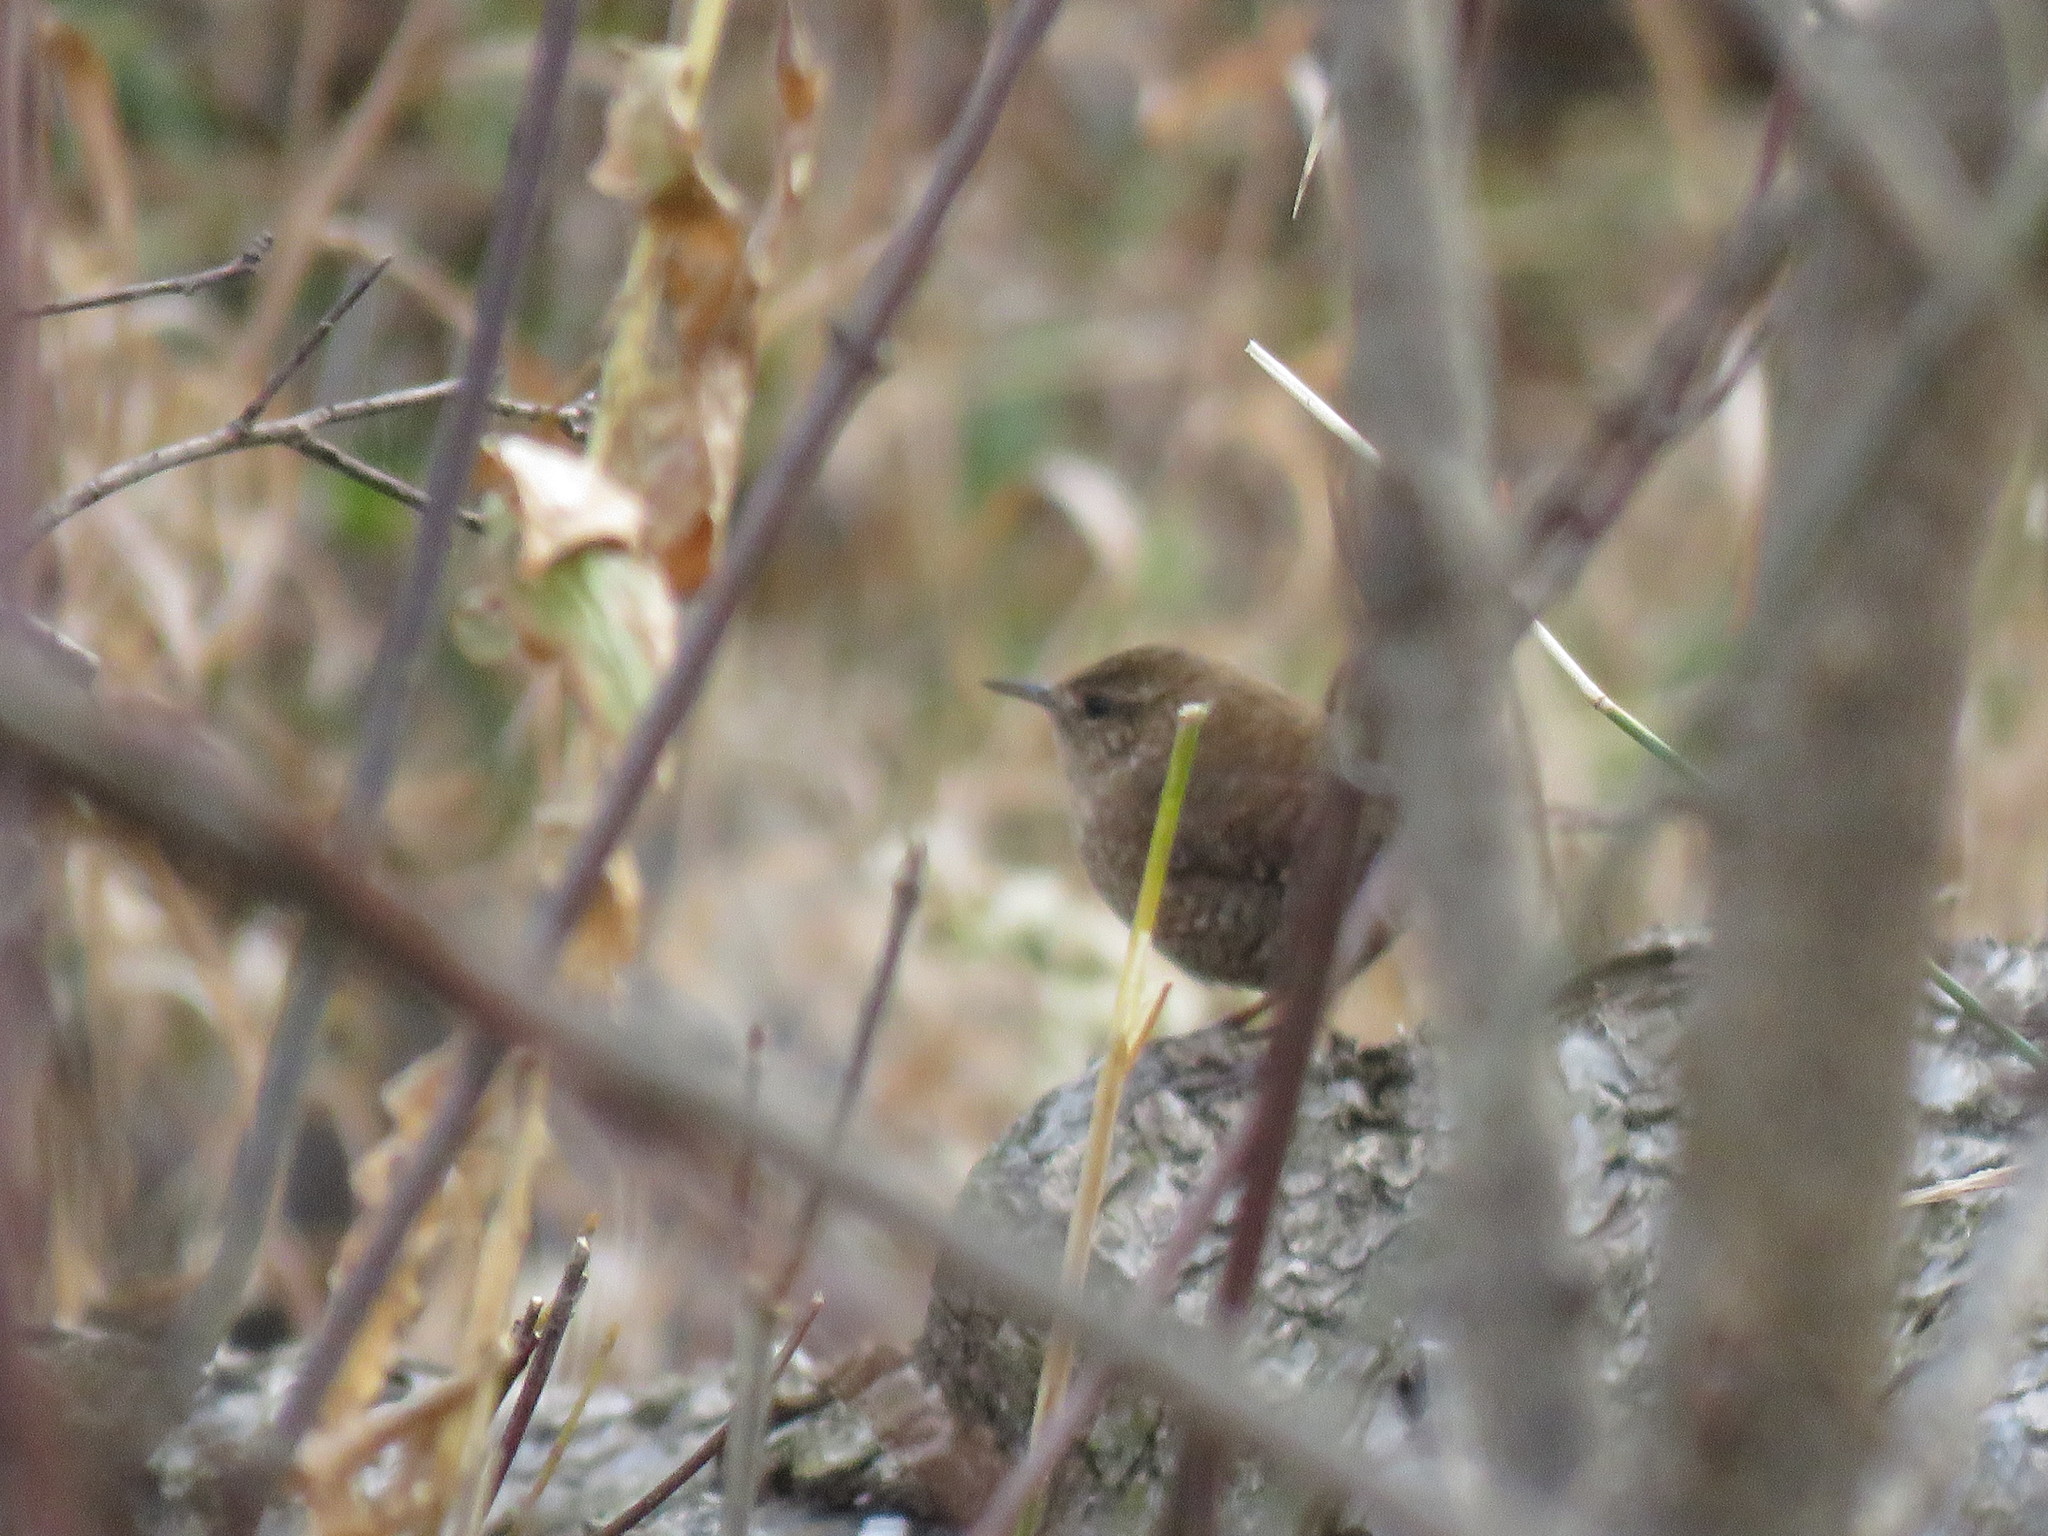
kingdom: Animalia
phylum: Chordata
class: Aves
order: Passeriformes
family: Troglodytidae
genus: Troglodytes
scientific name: Troglodytes hiemalis
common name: Winter wren
